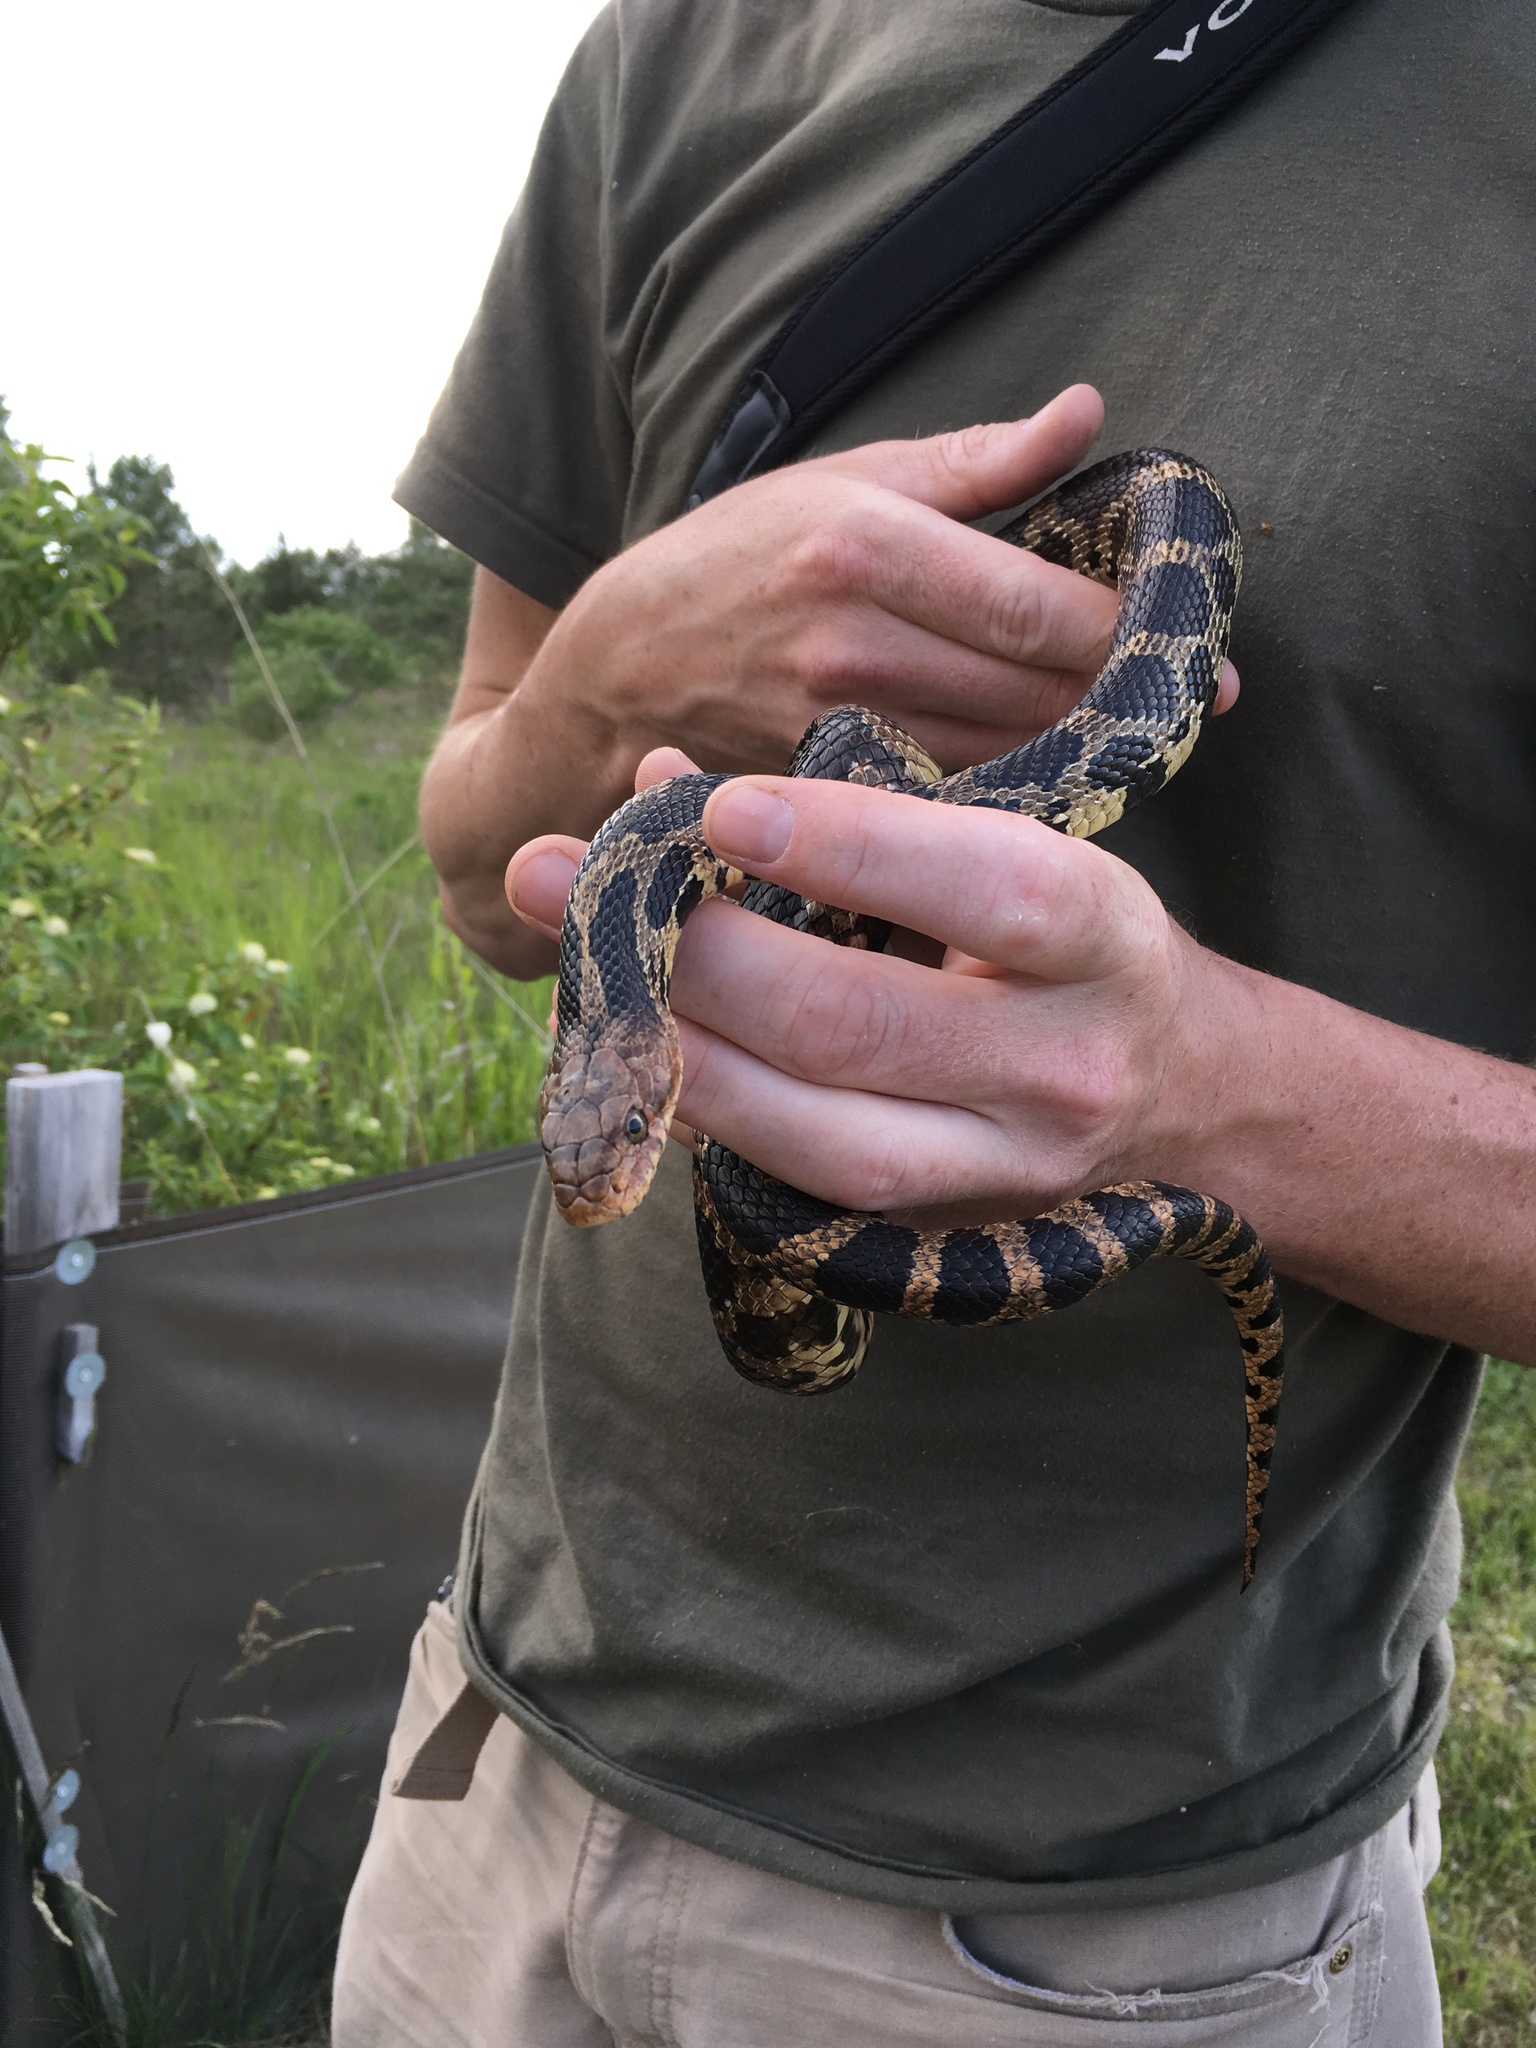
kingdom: Animalia
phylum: Chordata
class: Squamata
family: Colubridae
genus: Pantherophis
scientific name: Pantherophis vulpinus
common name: Eastern fox snake
